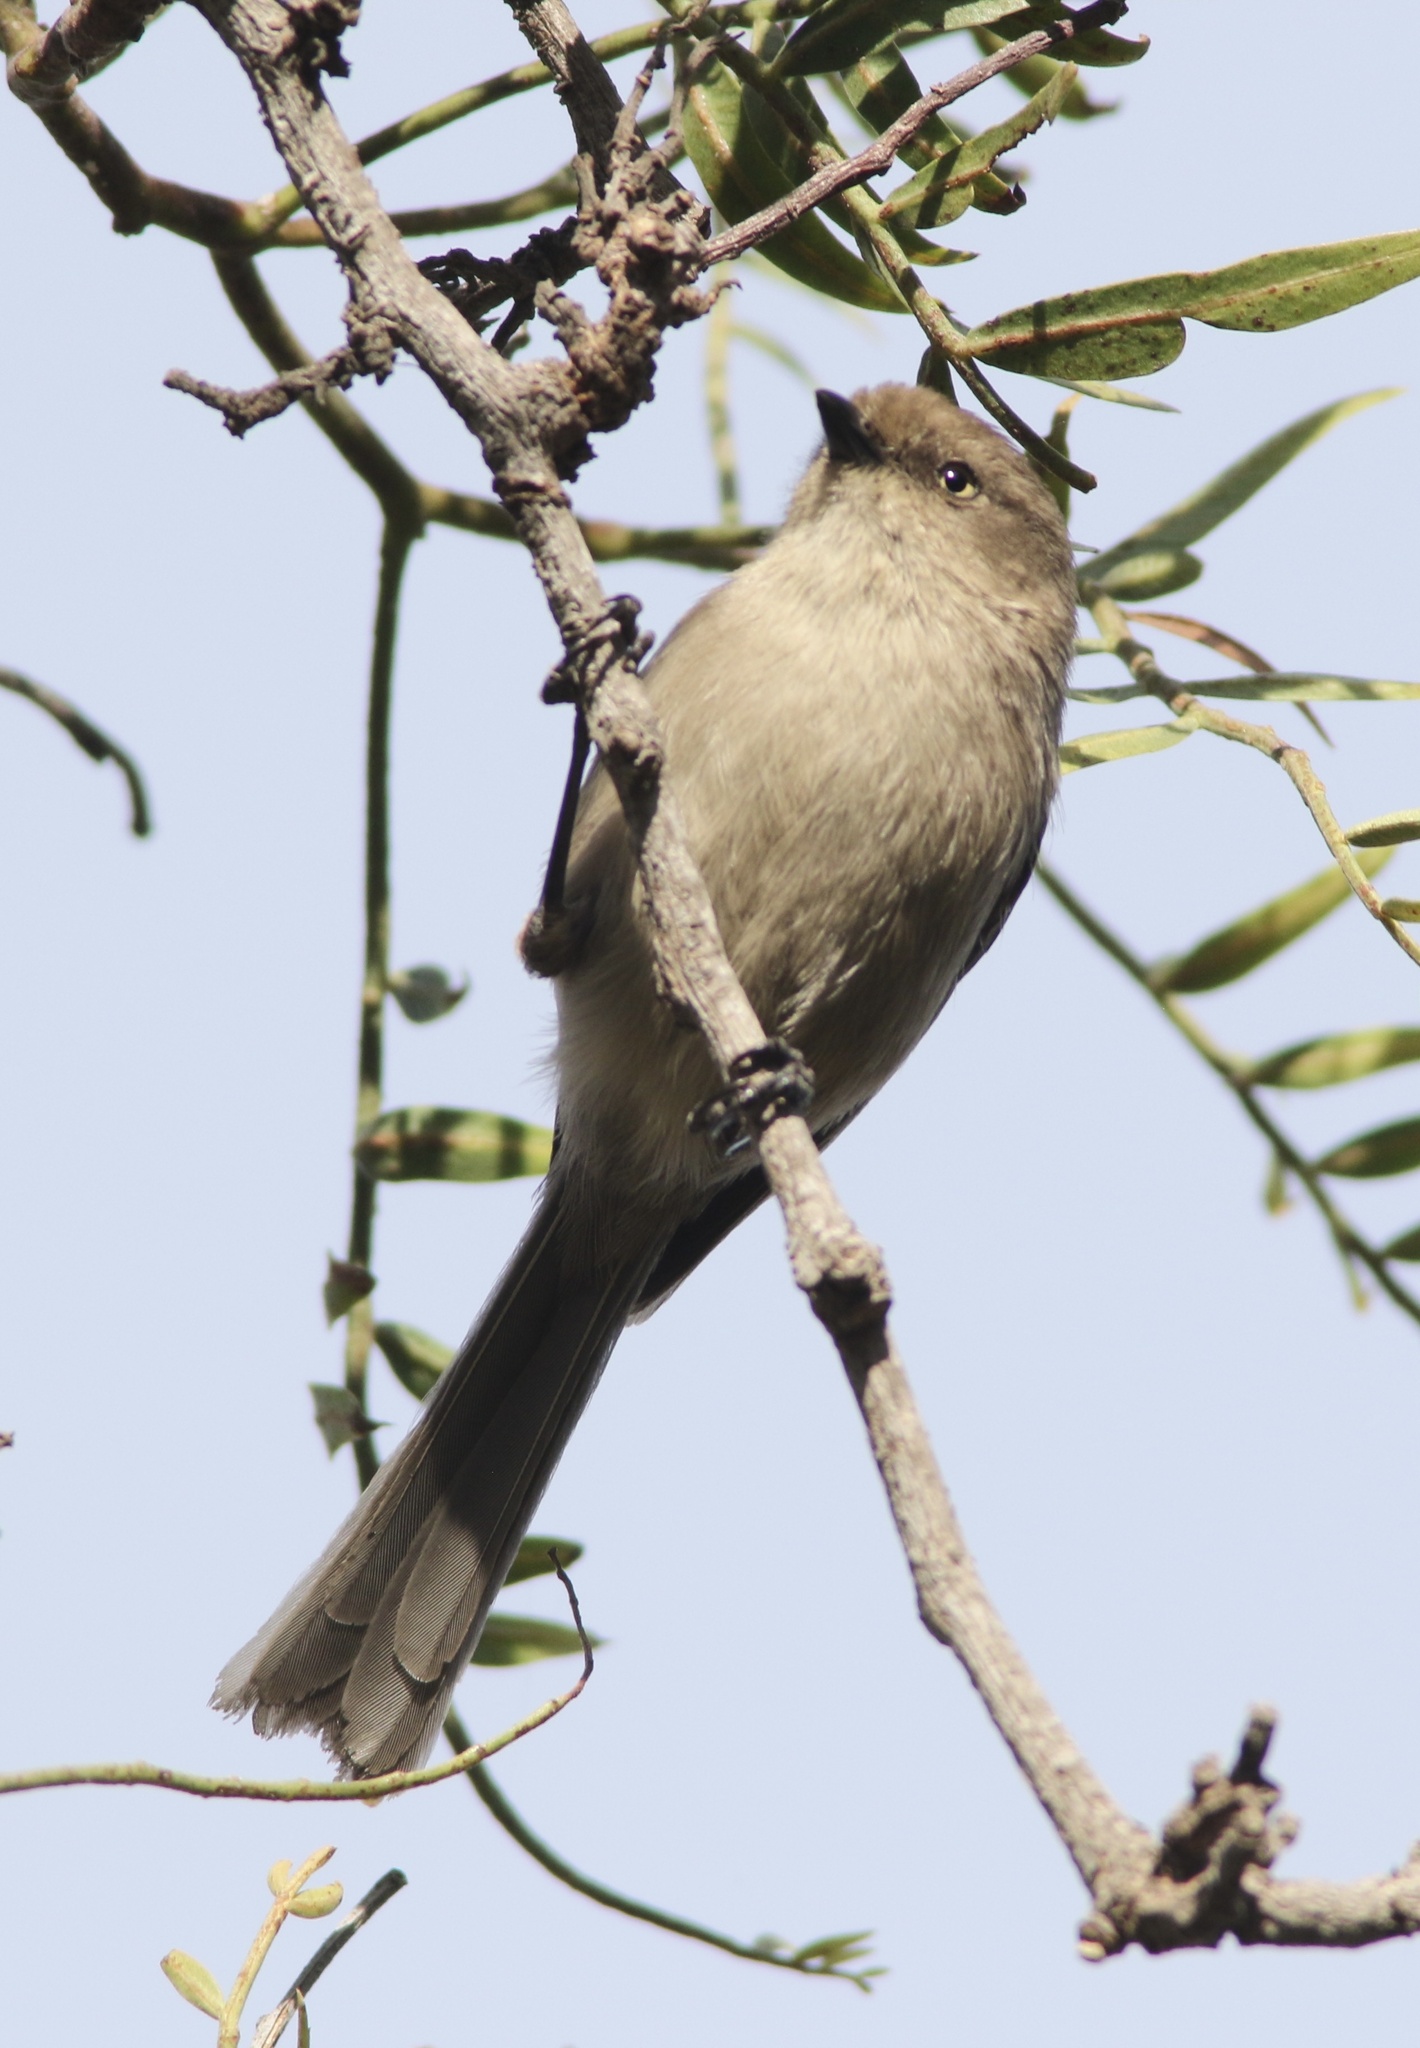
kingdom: Animalia
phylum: Chordata
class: Aves
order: Passeriformes
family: Aegithalidae
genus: Psaltriparus
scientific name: Psaltriparus minimus
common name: American bushtit
